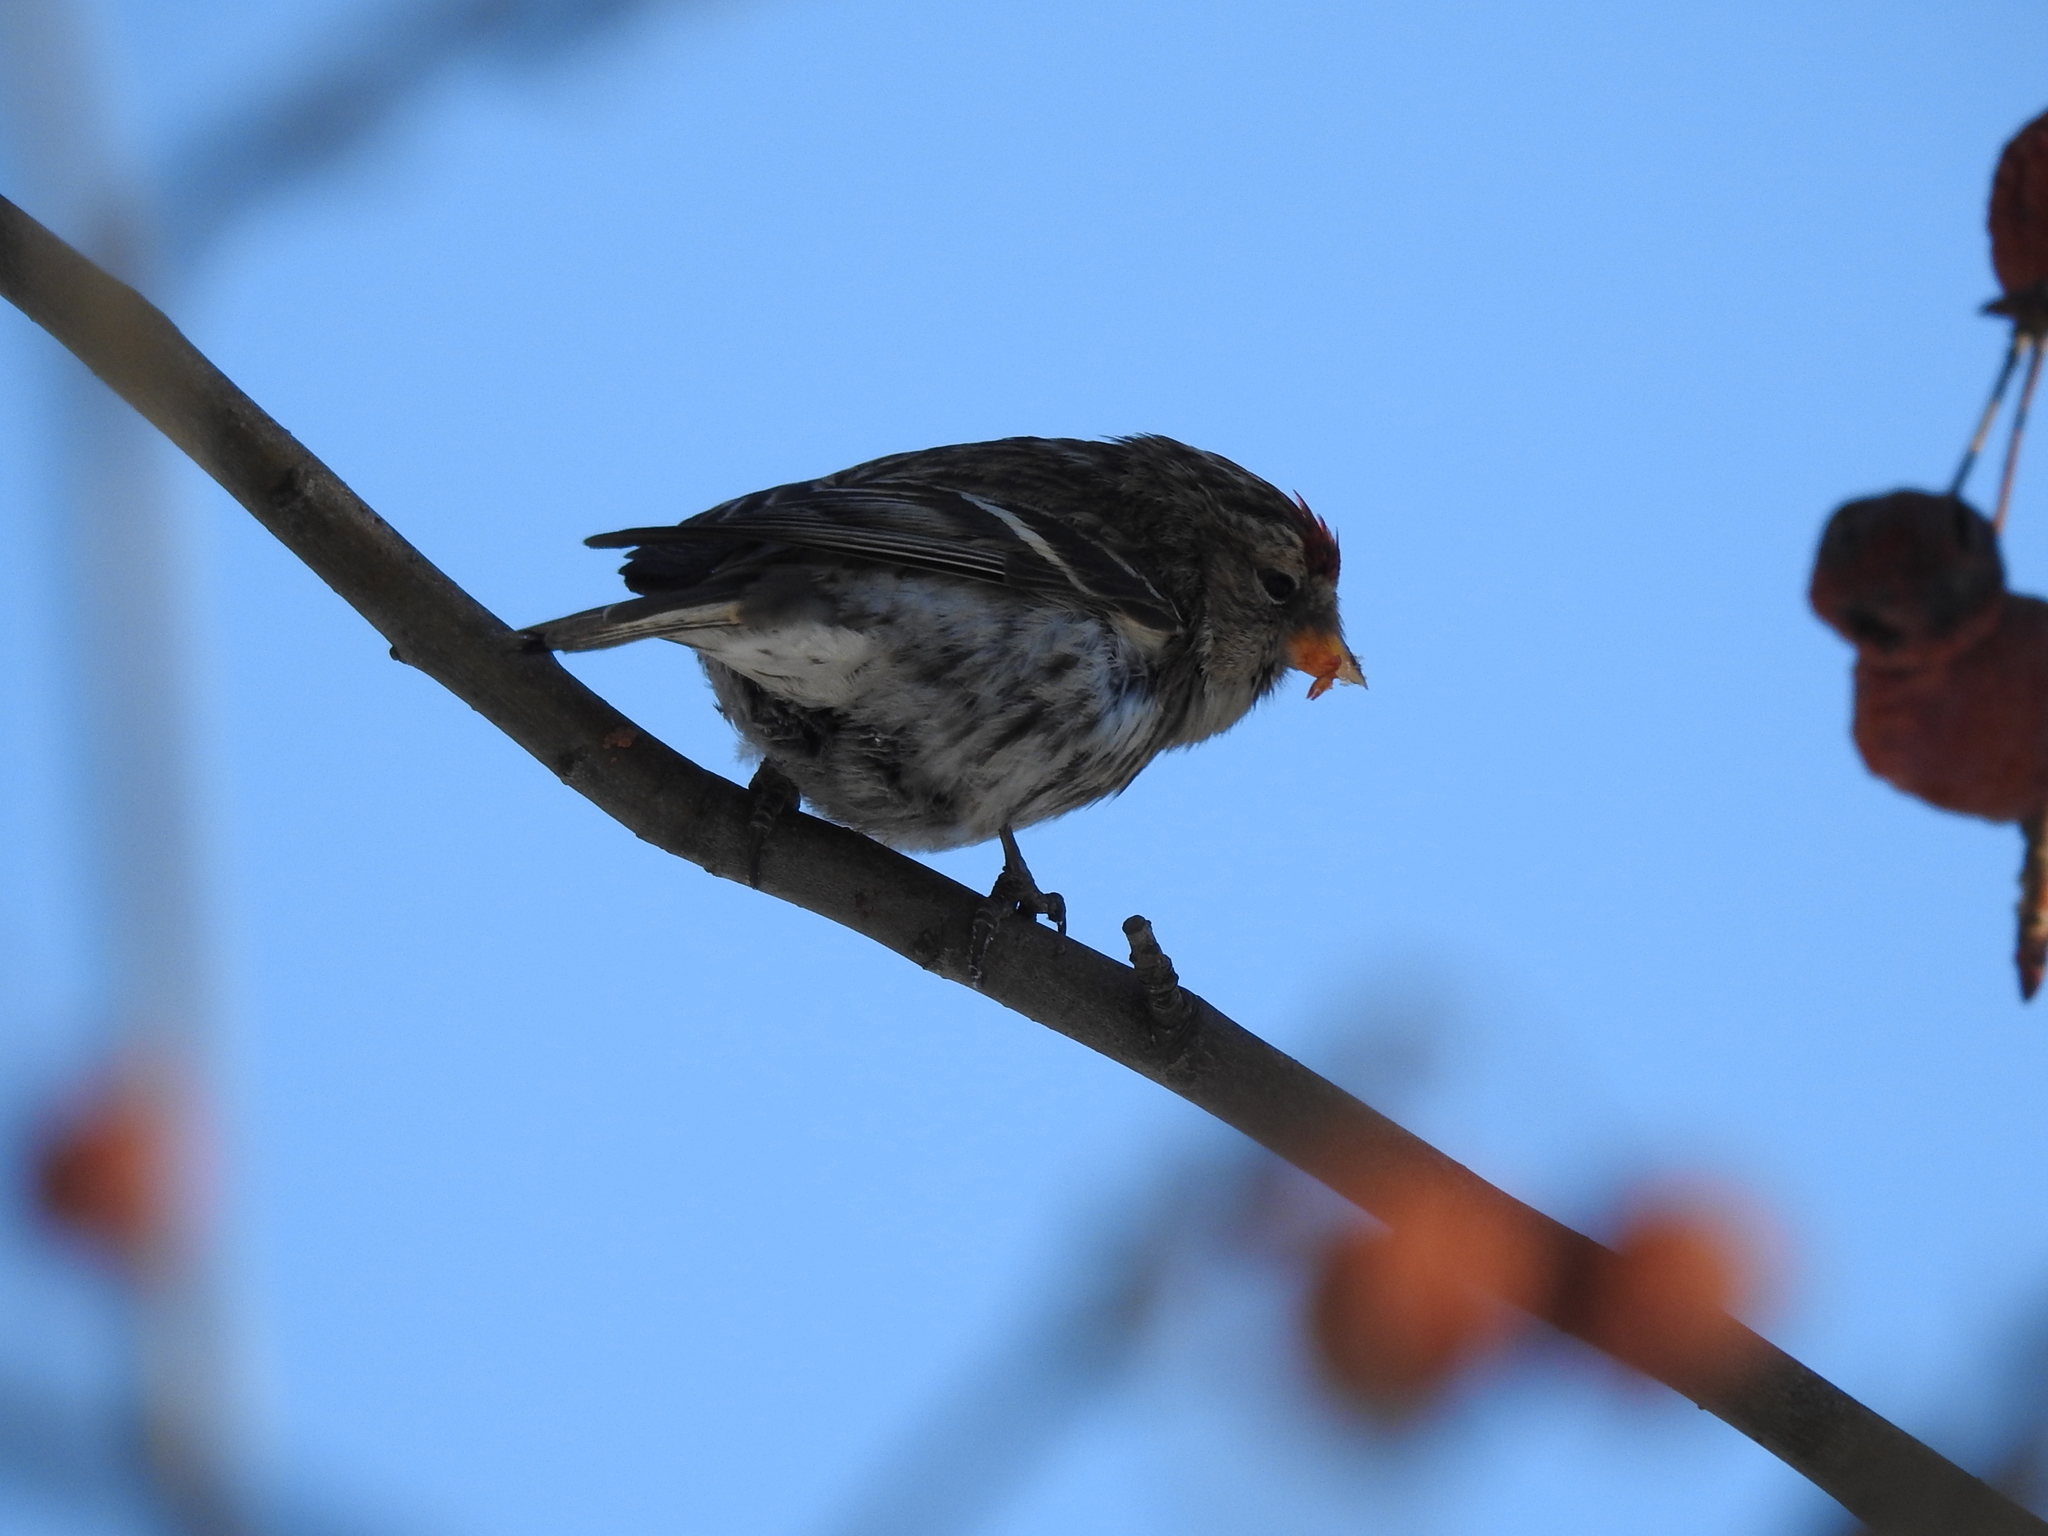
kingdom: Animalia
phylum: Chordata
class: Aves
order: Passeriformes
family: Fringillidae
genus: Acanthis
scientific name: Acanthis flammea
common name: Common redpoll
